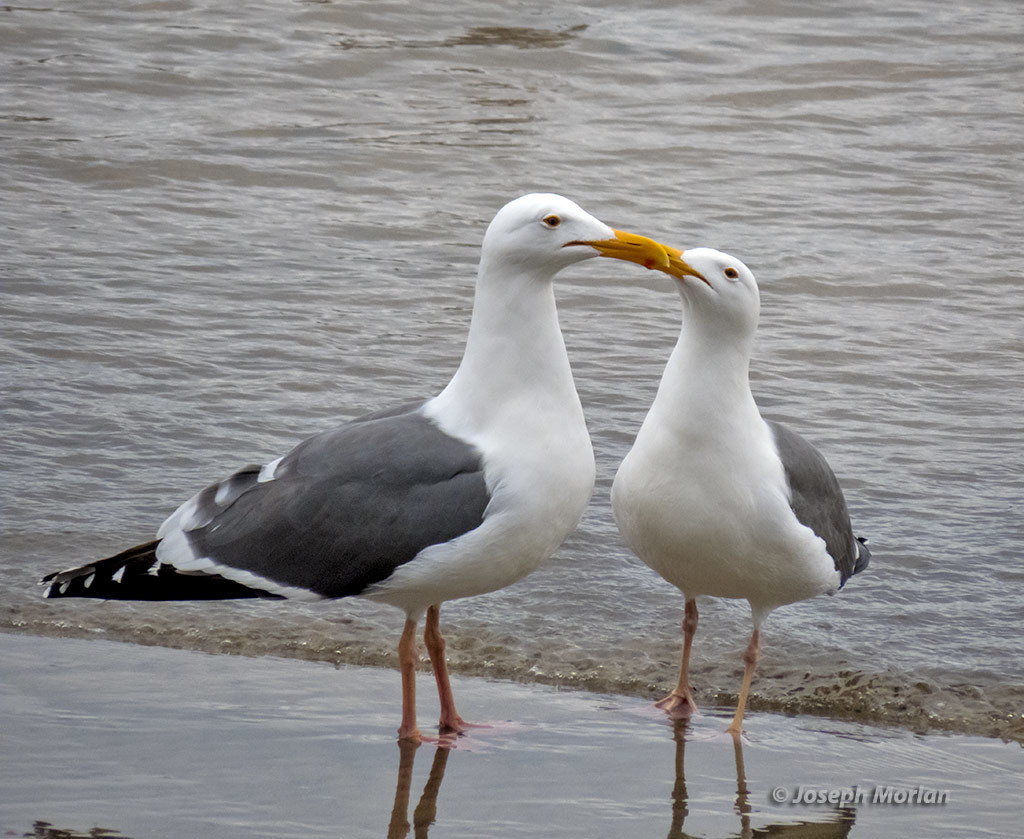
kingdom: Animalia
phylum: Chordata
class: Aves
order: Charadriiformes
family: Laridae
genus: Larus
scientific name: Larus occidentalis
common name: Western gull
